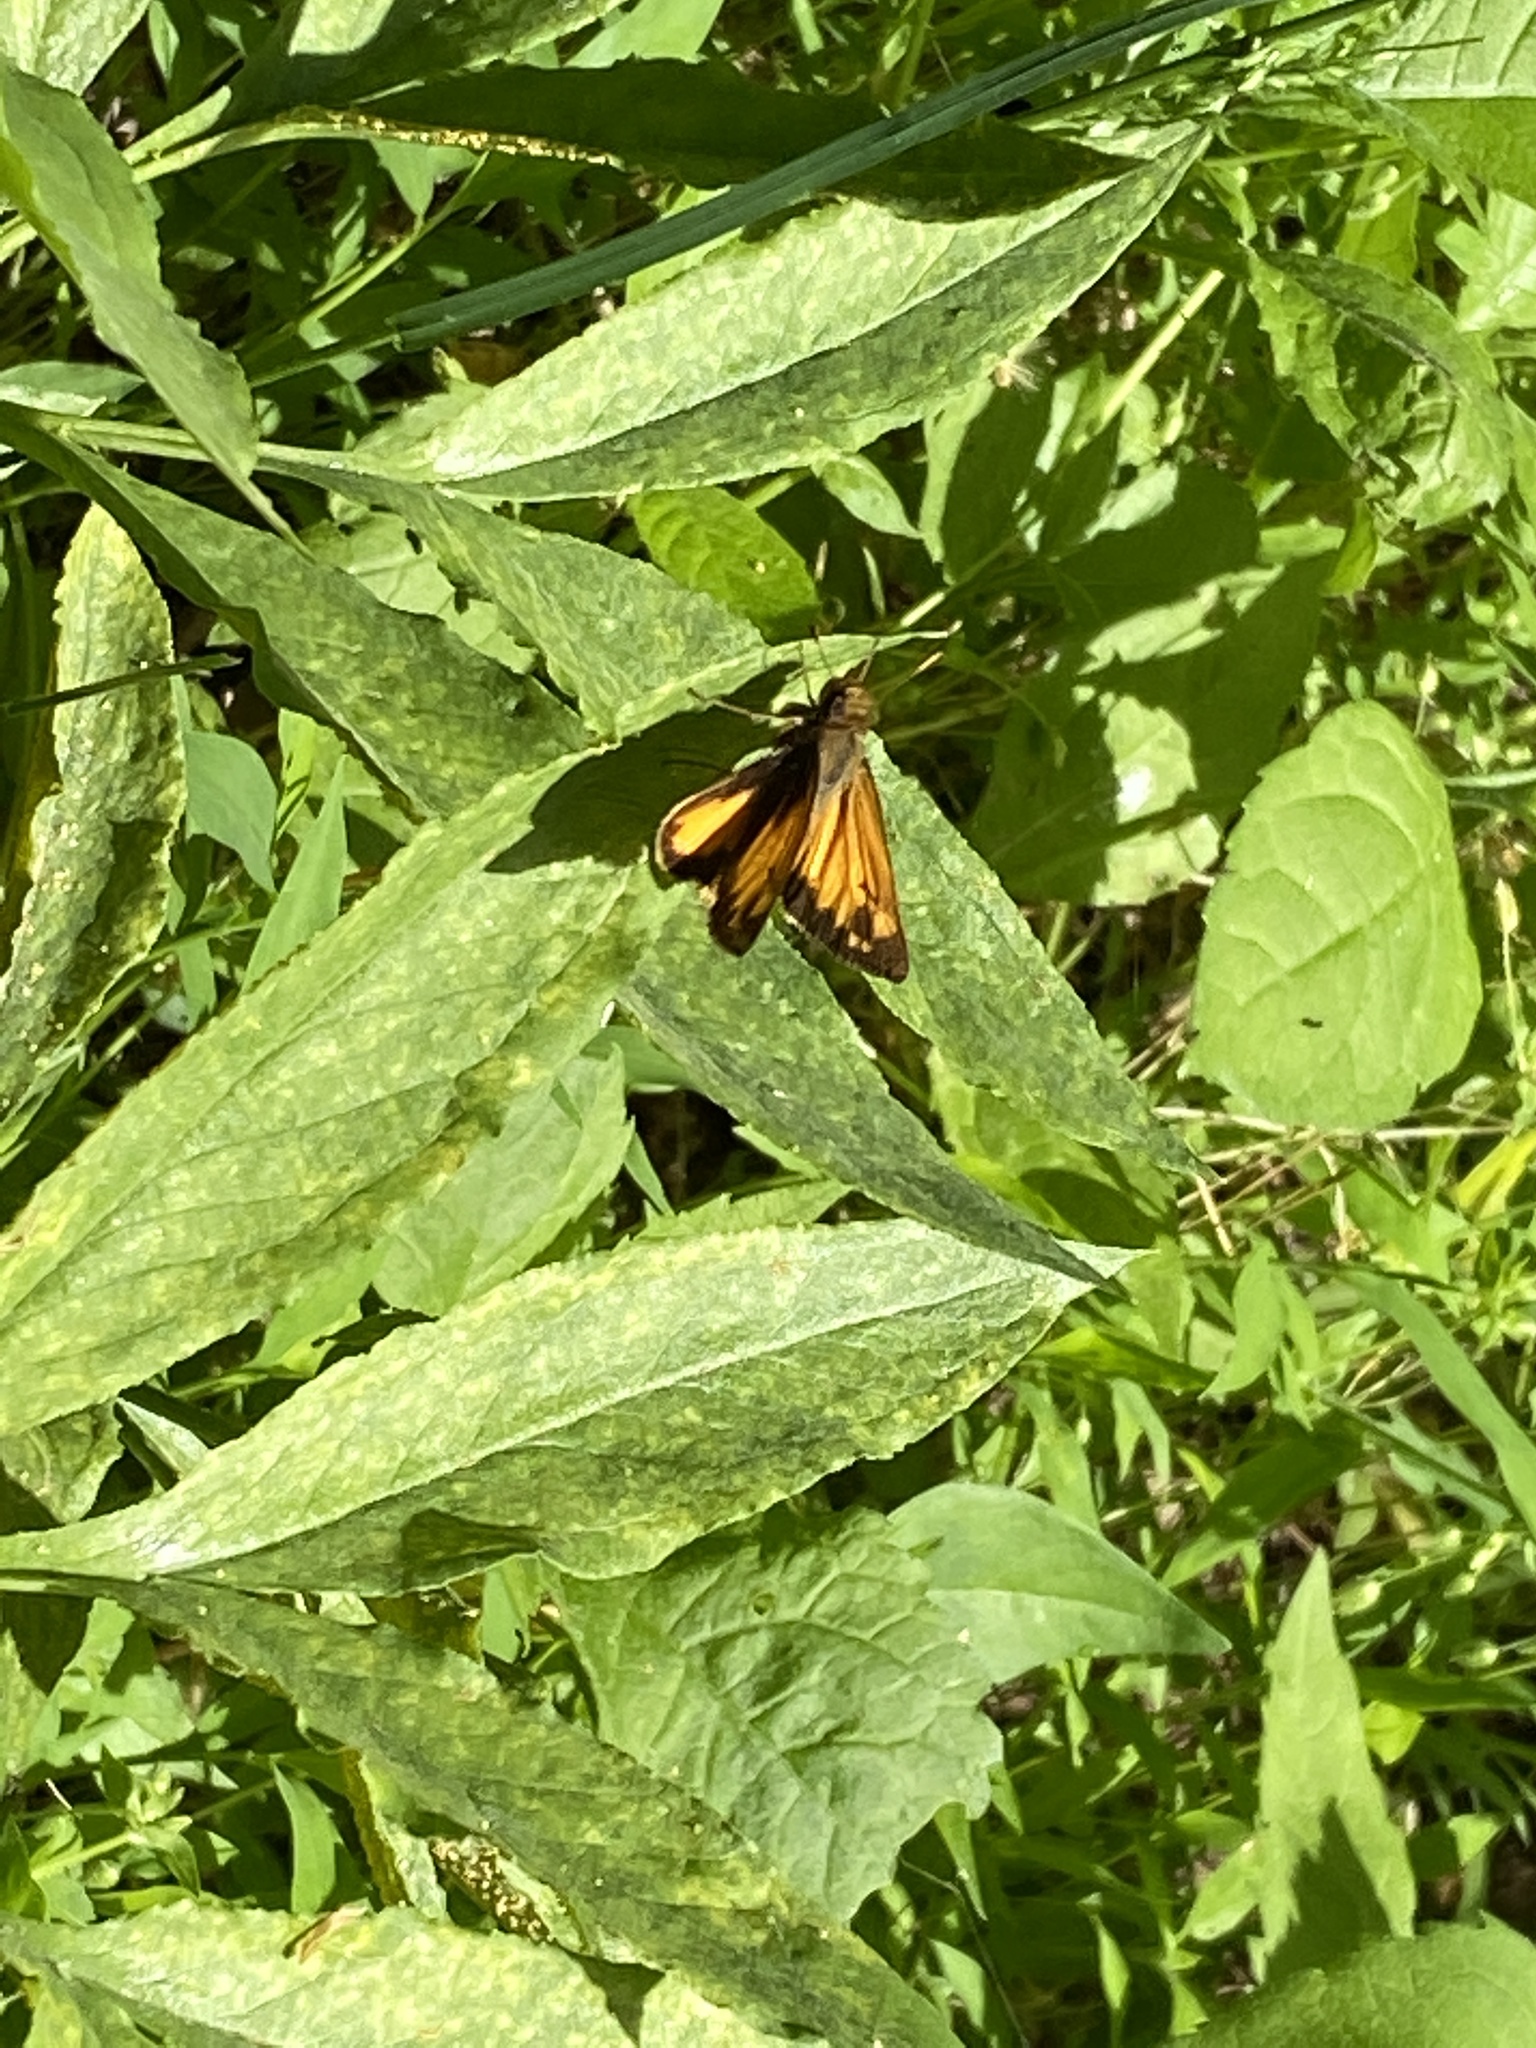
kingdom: Animalia
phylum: Arthropoda
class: Insecta
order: Lepidoptera
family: Hesperiidae
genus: Lon
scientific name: Lon zabulon
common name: Zabulon skipper
